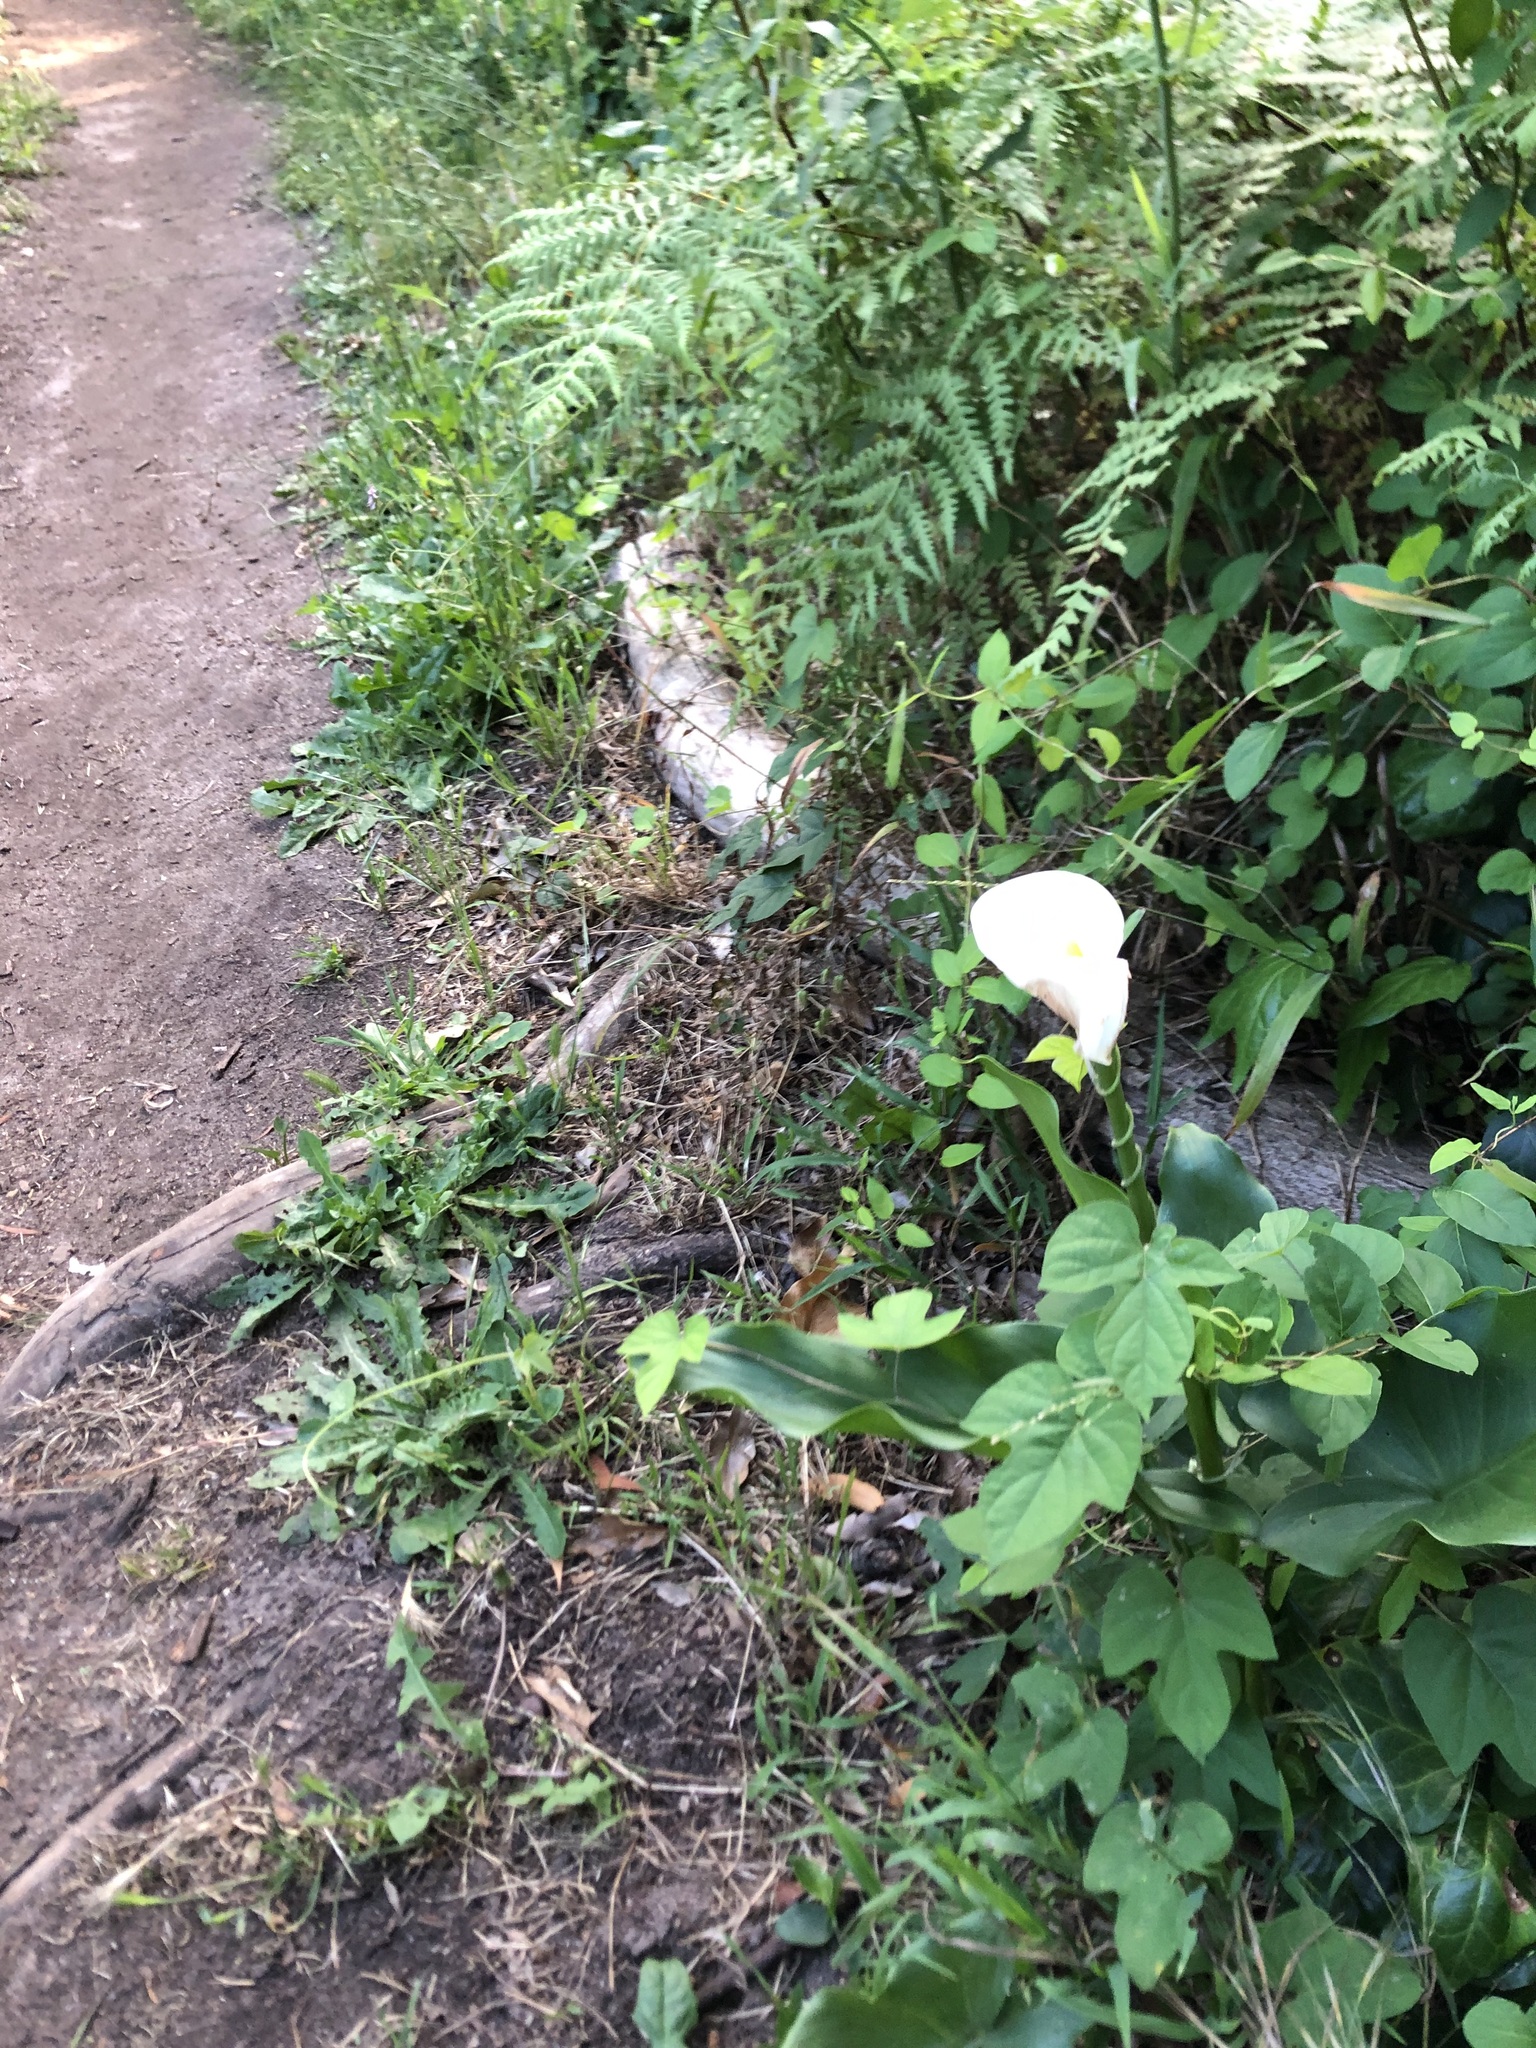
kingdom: Plantae
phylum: Tracheophyta
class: Liliopsida
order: Alismatales
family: Araceae
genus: Zantedeschia
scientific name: Zantedeschia aethiopica
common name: Altar-lily
